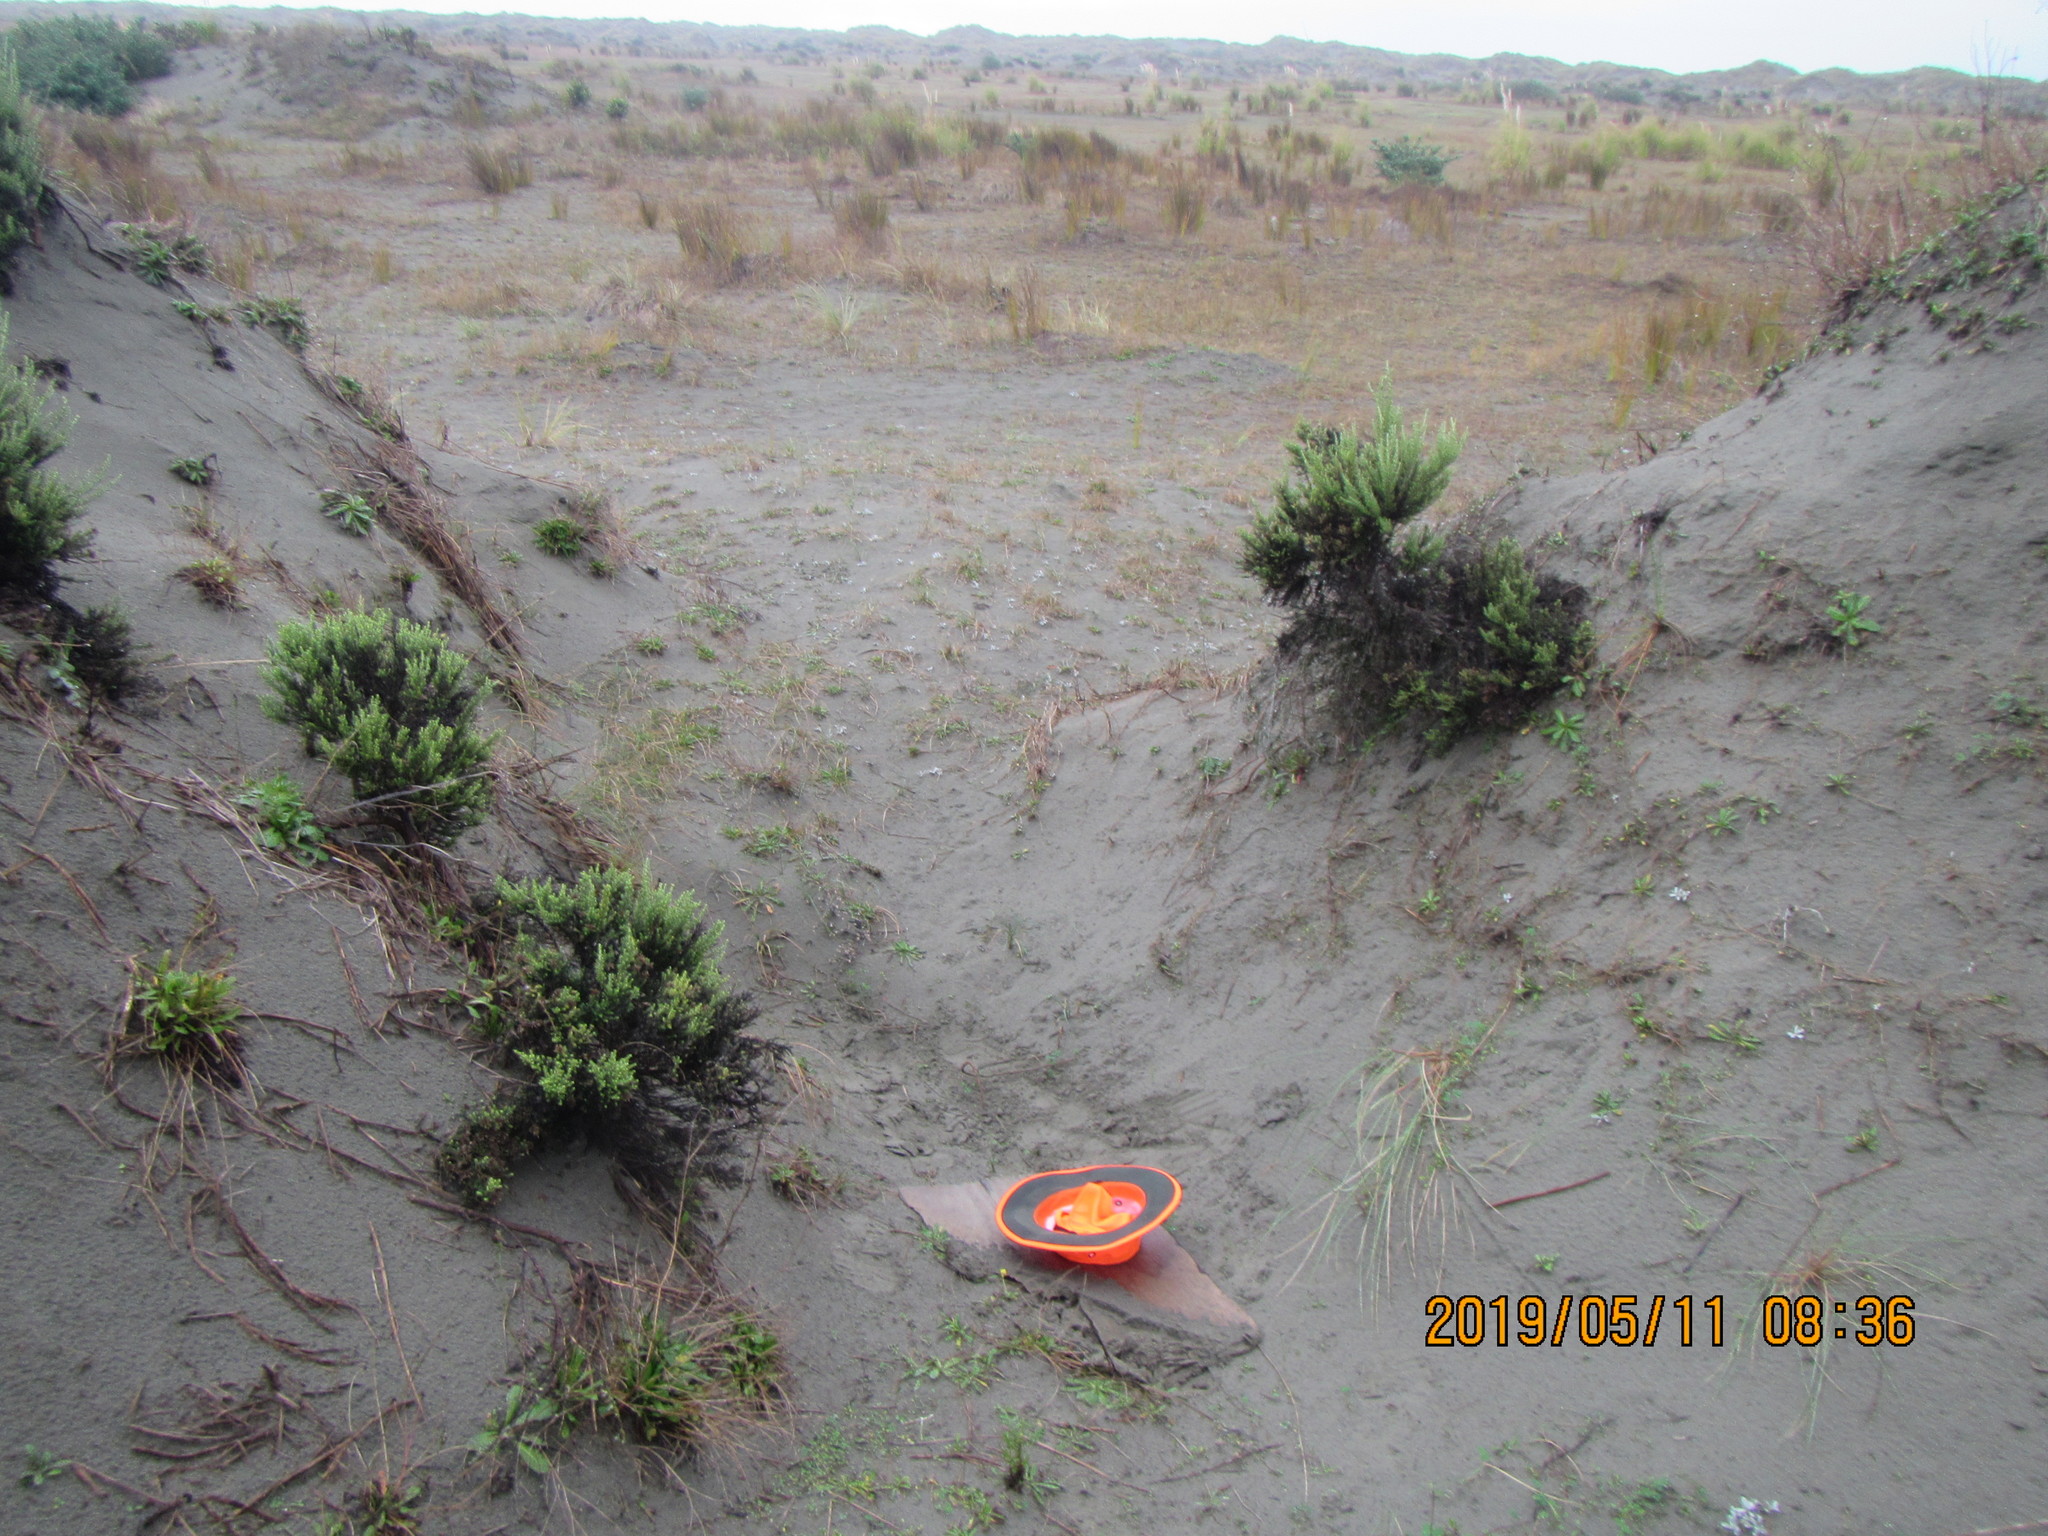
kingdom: Animalia
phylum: Arthropoda
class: Arachnida
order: Araneae
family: Lycosidae
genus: Anoteropsis
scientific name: Anoteropsis litoralis
